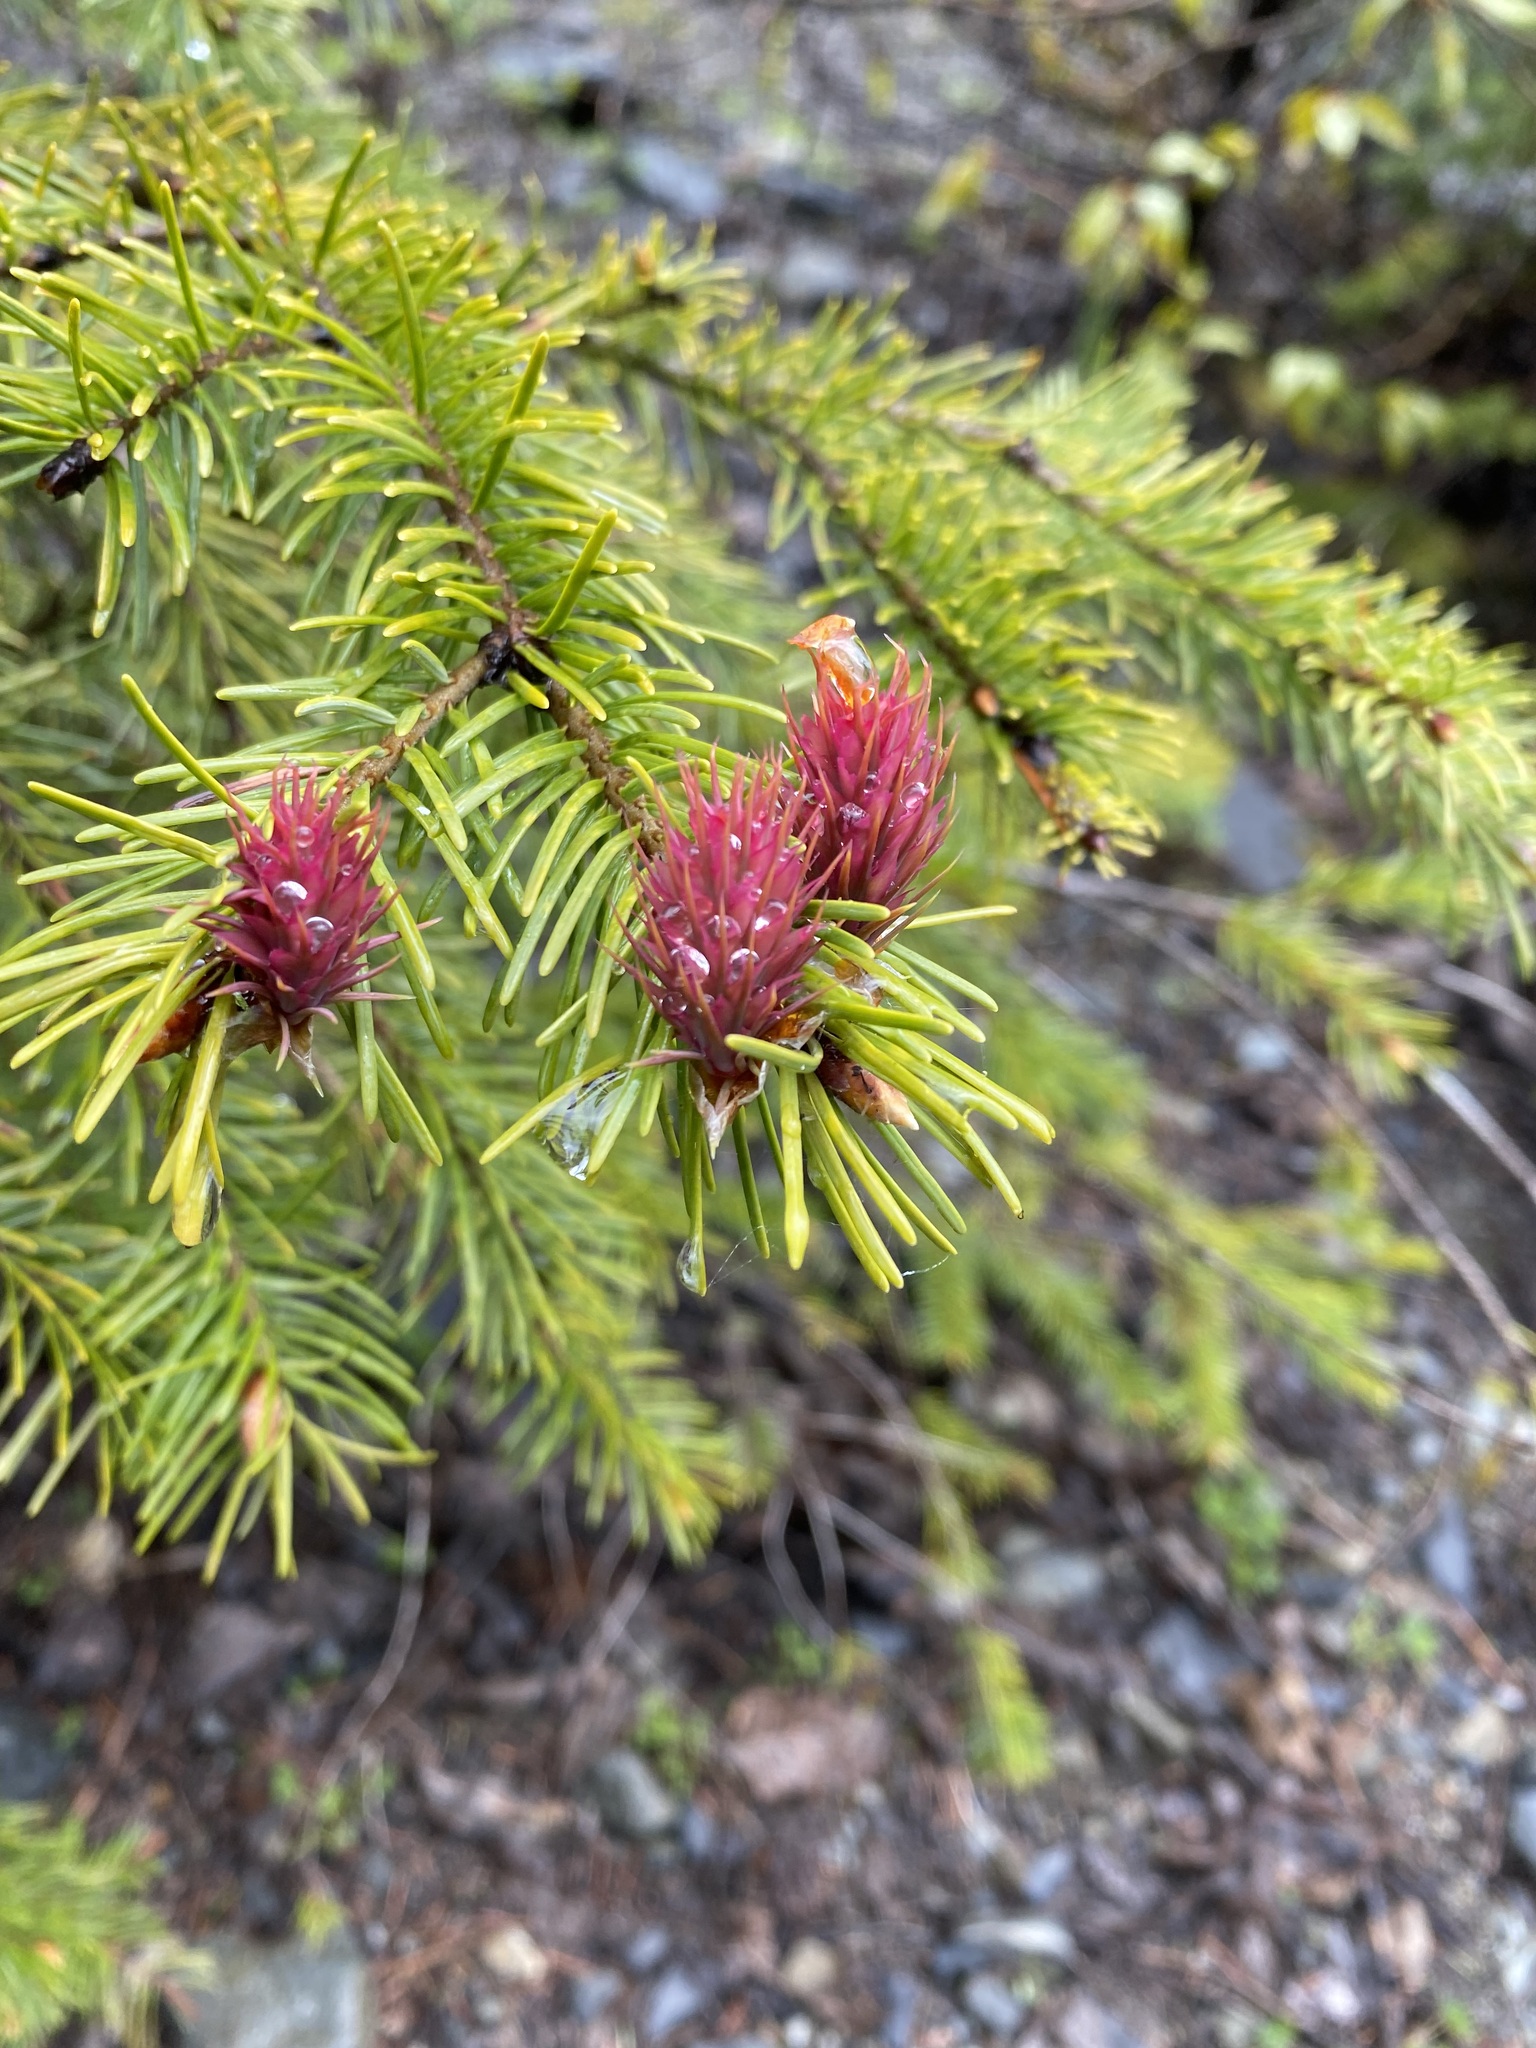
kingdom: Plantae
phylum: Tracheophyta
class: Pinopsida
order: Pinales
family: Pinaceae
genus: Pseudotsuga
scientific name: Pseudotsuga menziesii
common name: Douglas fir
